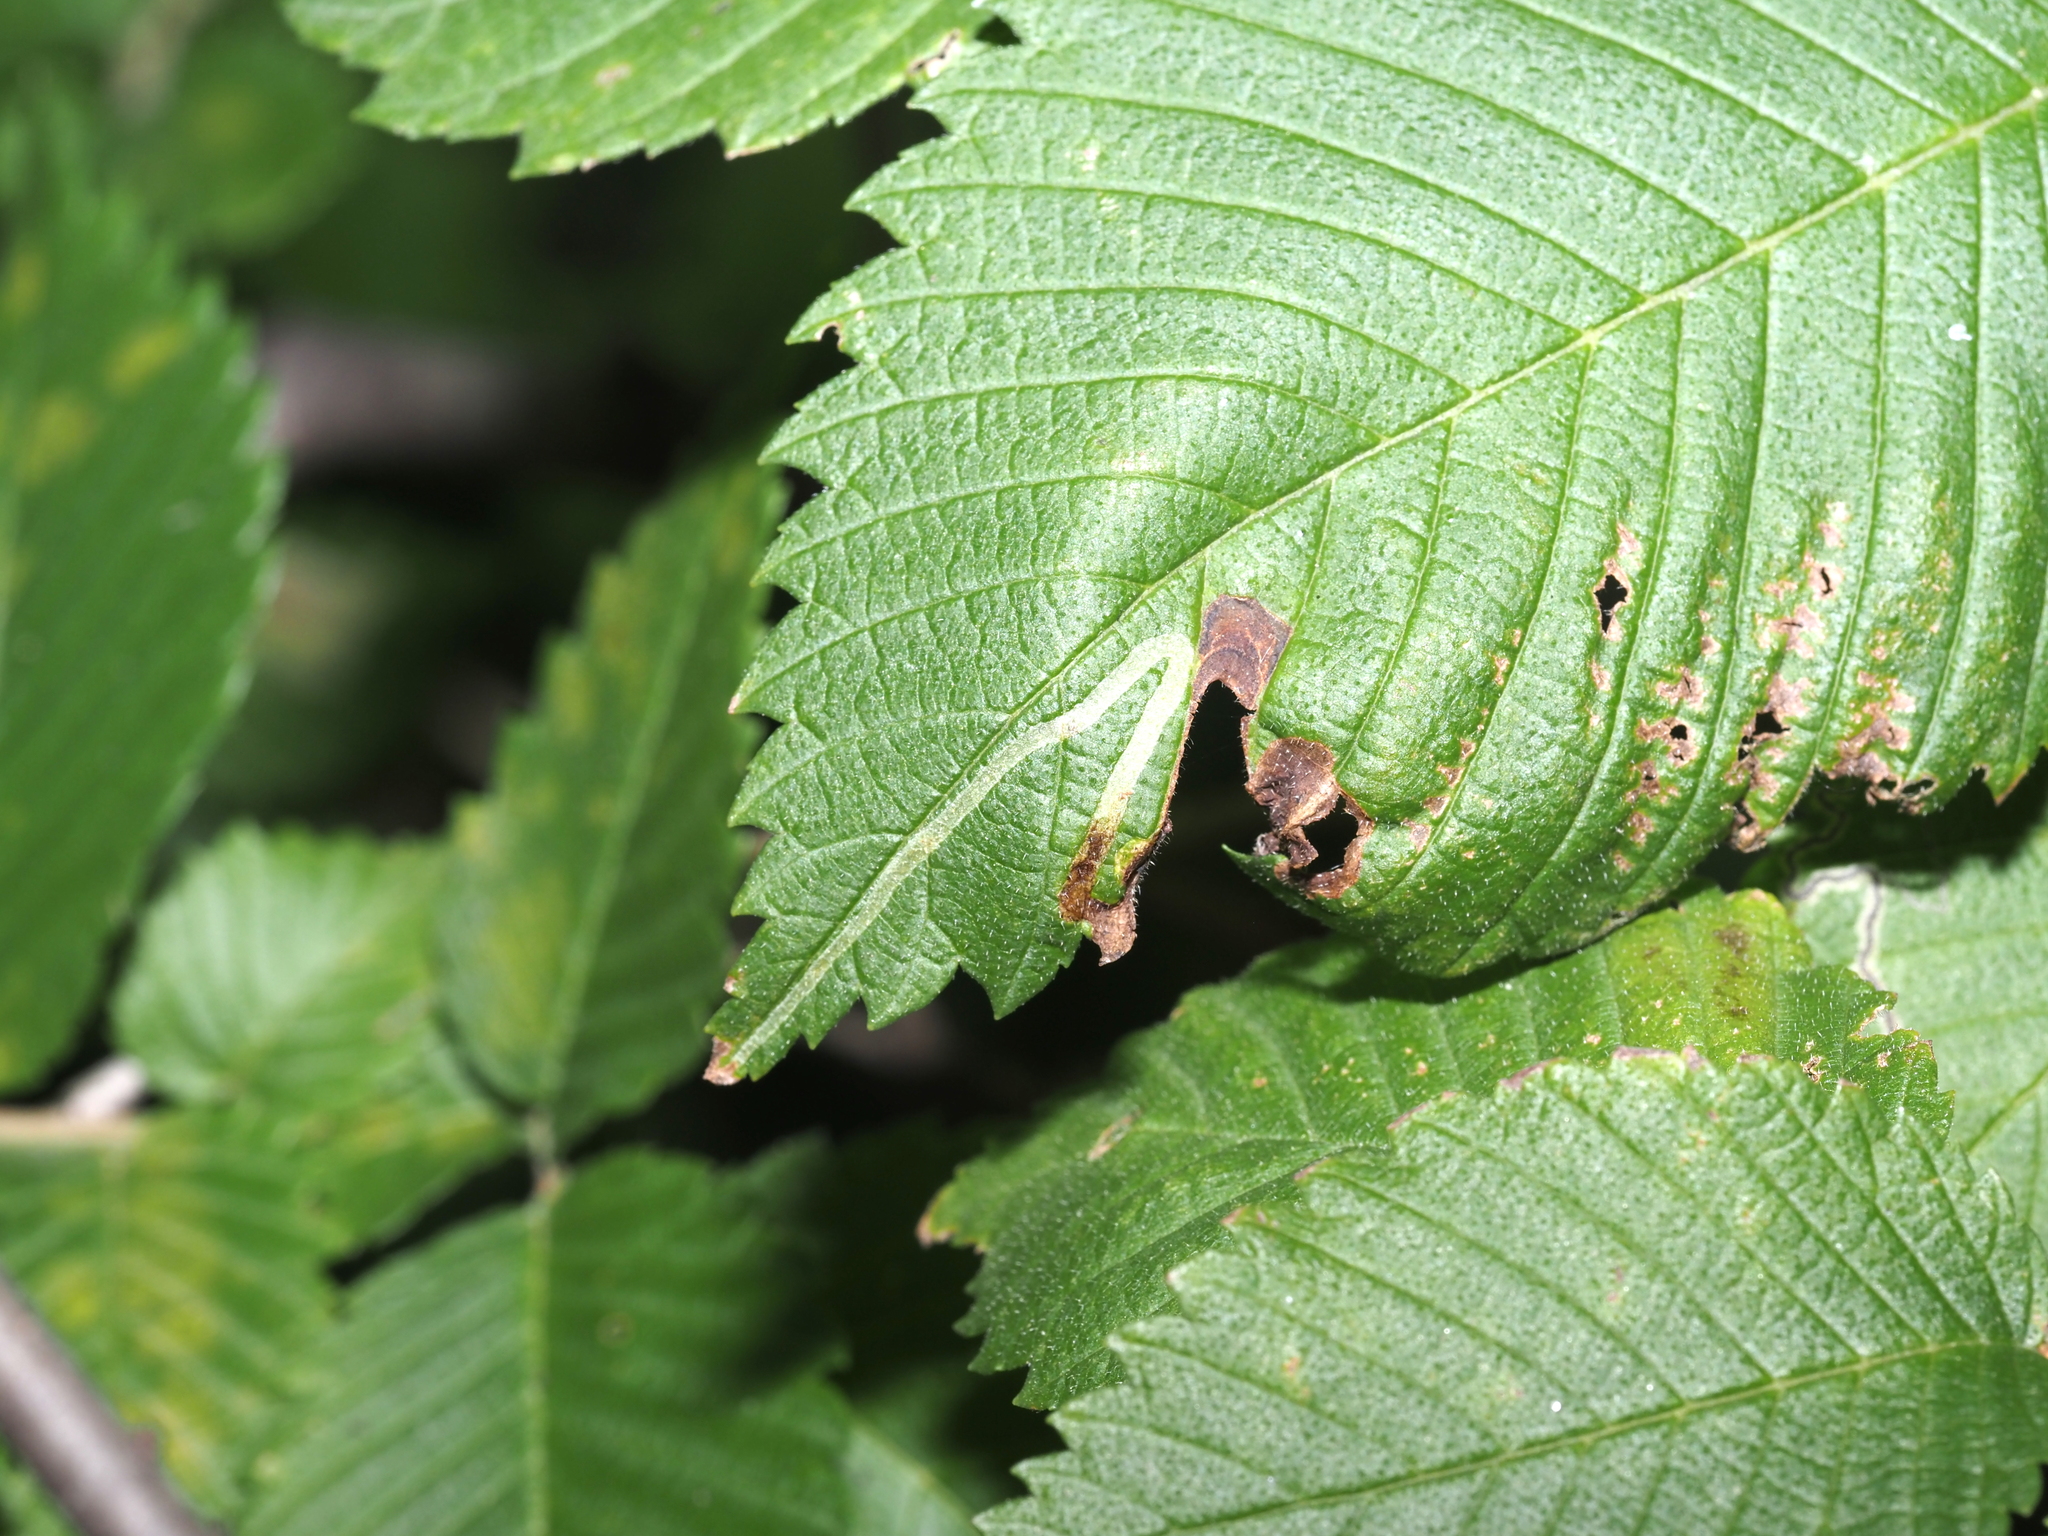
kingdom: Animalia
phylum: Arthropoda
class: Insecta
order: Diptera
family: Agromyzidae
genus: Agromyza
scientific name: Agromyza aristata
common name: Elm agromyzid leafminer
